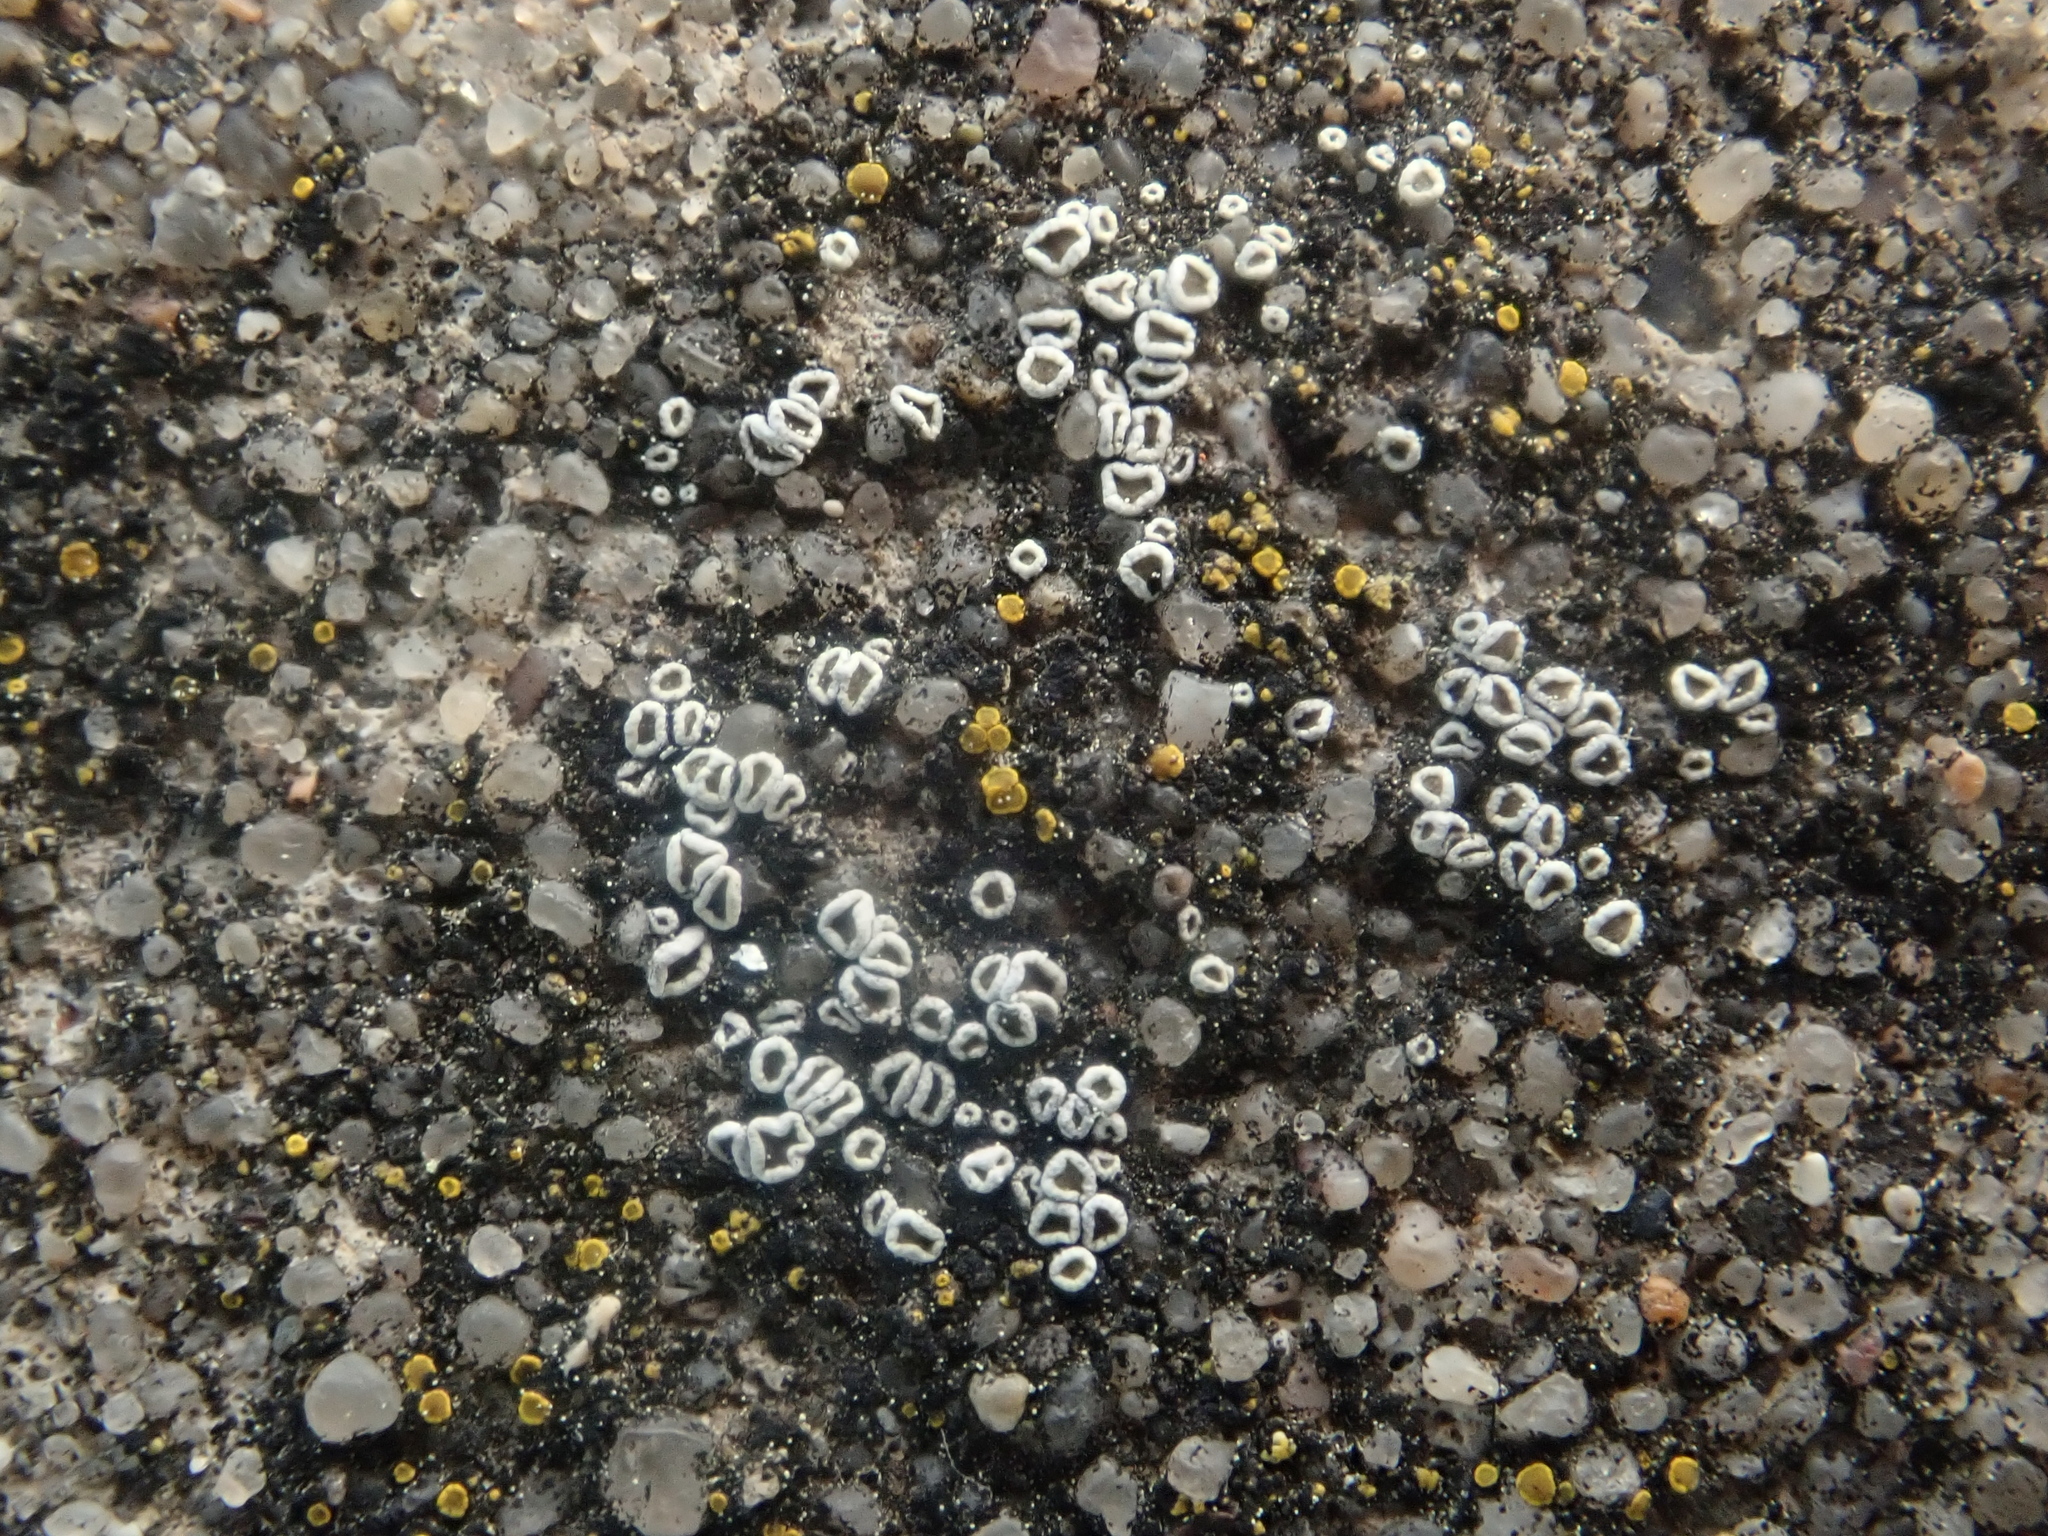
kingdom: Fungi
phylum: Ascomycota
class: Lecanoromycetes
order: Lecanorales
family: Lecanoraceae
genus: Polyozosia
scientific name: Polyozosia dispersa
